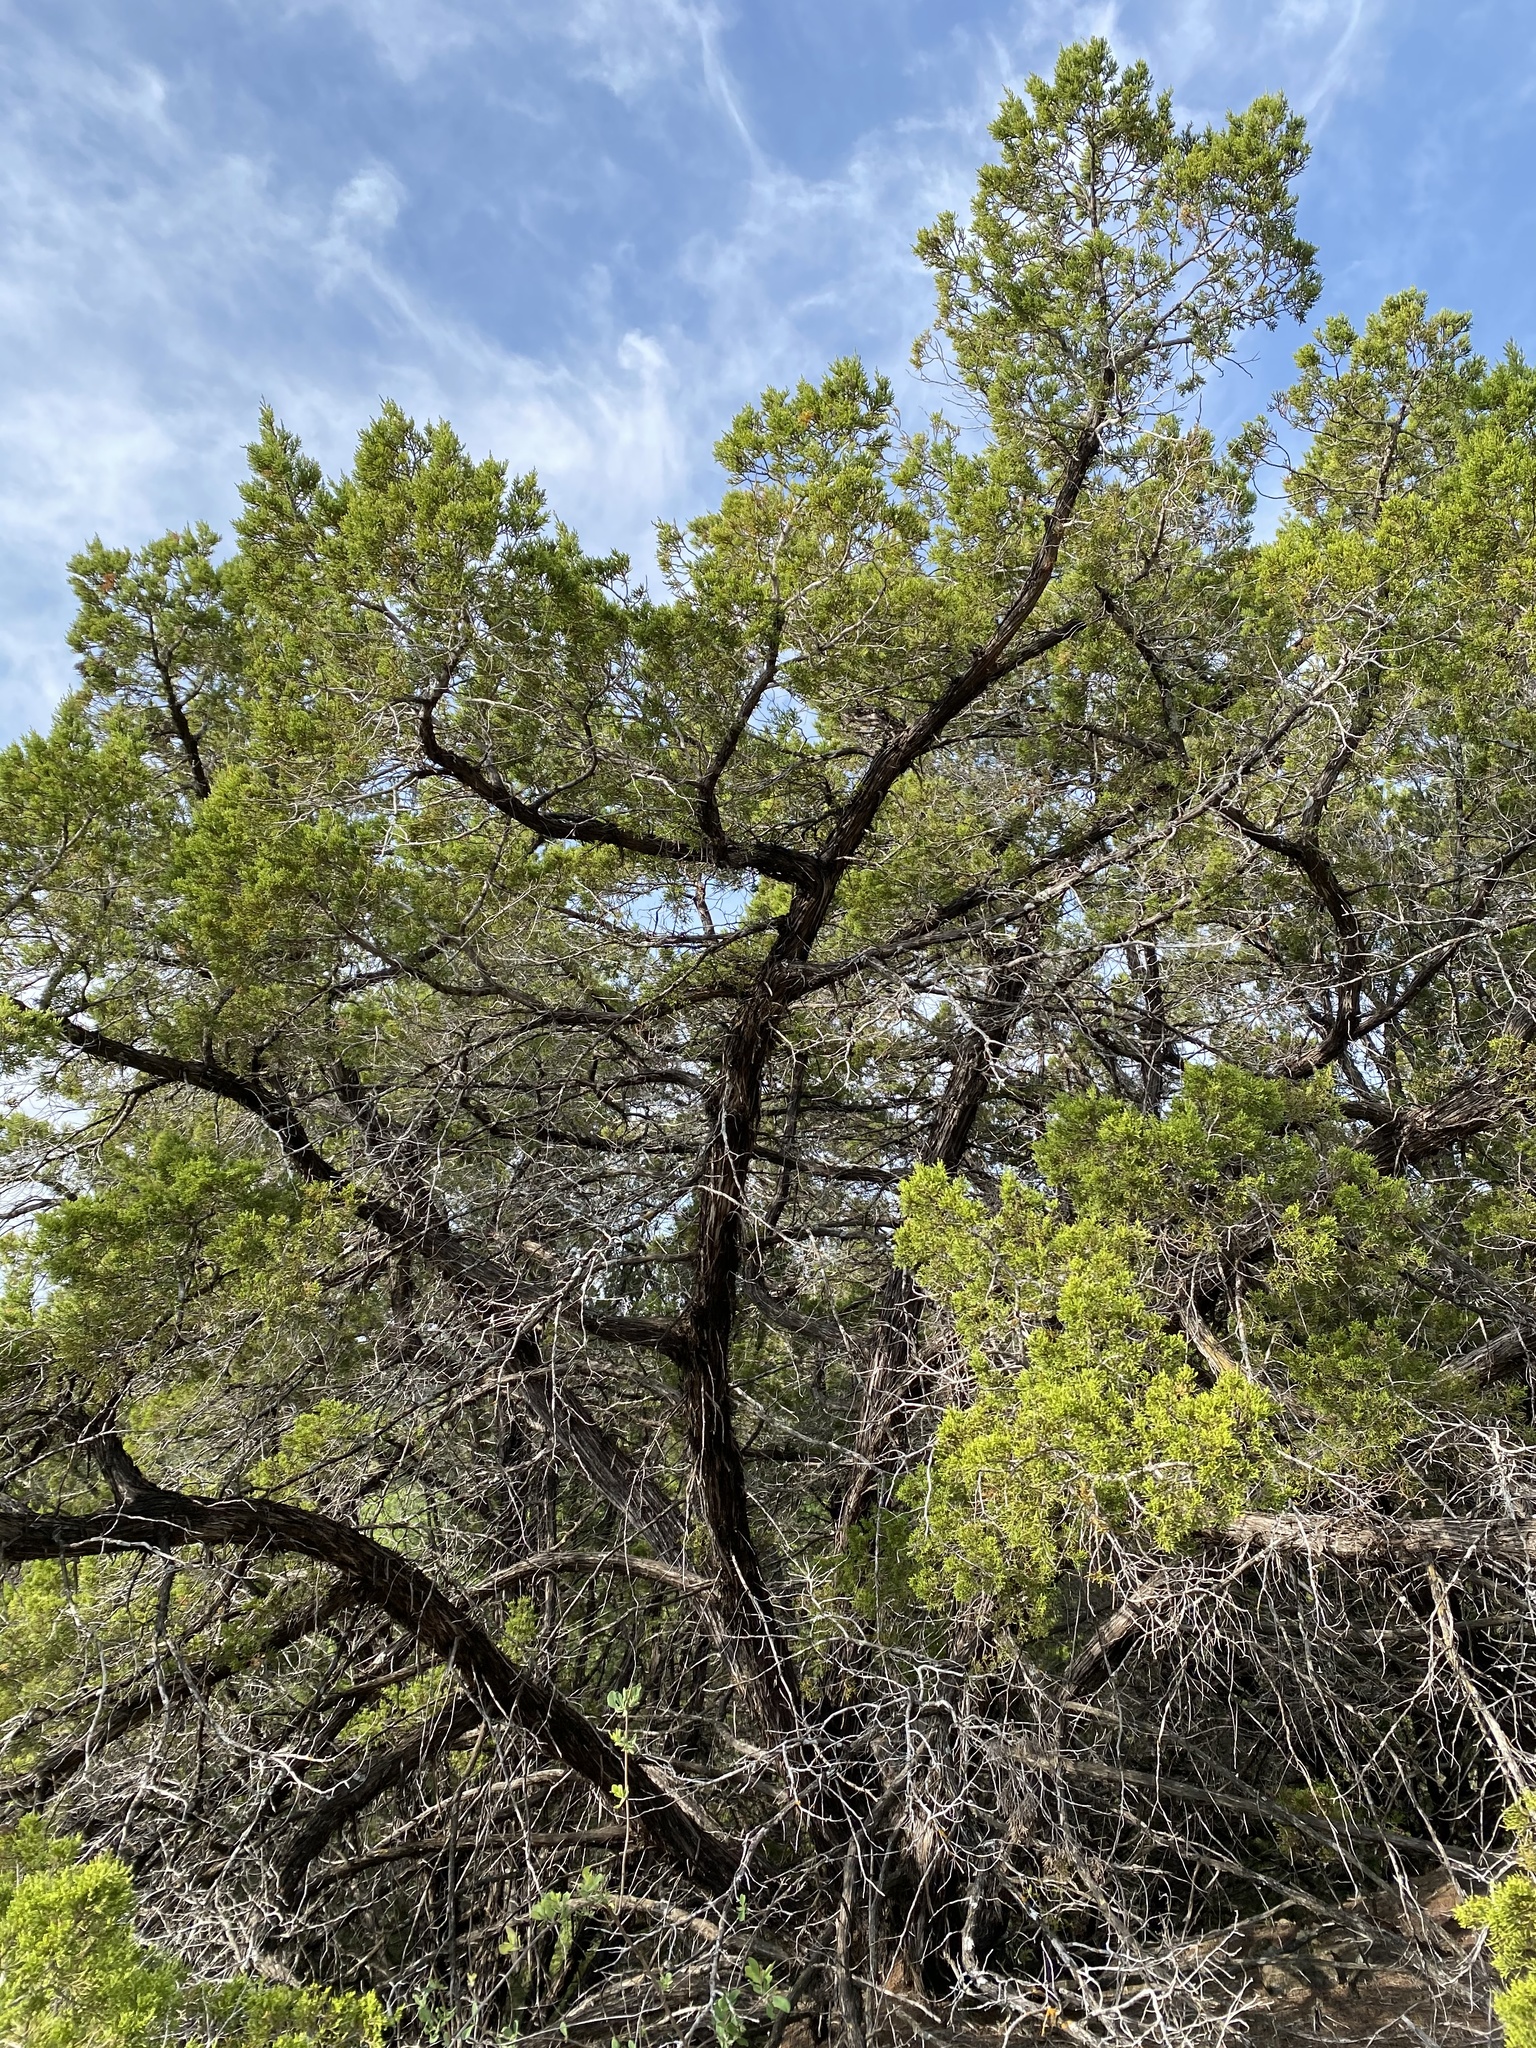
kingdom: Plantae
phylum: Tracheophyta
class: Pinopsida
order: Pinales
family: Cupressaceae
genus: Juniperus
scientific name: Juniperus ashei
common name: Mexican juniper
